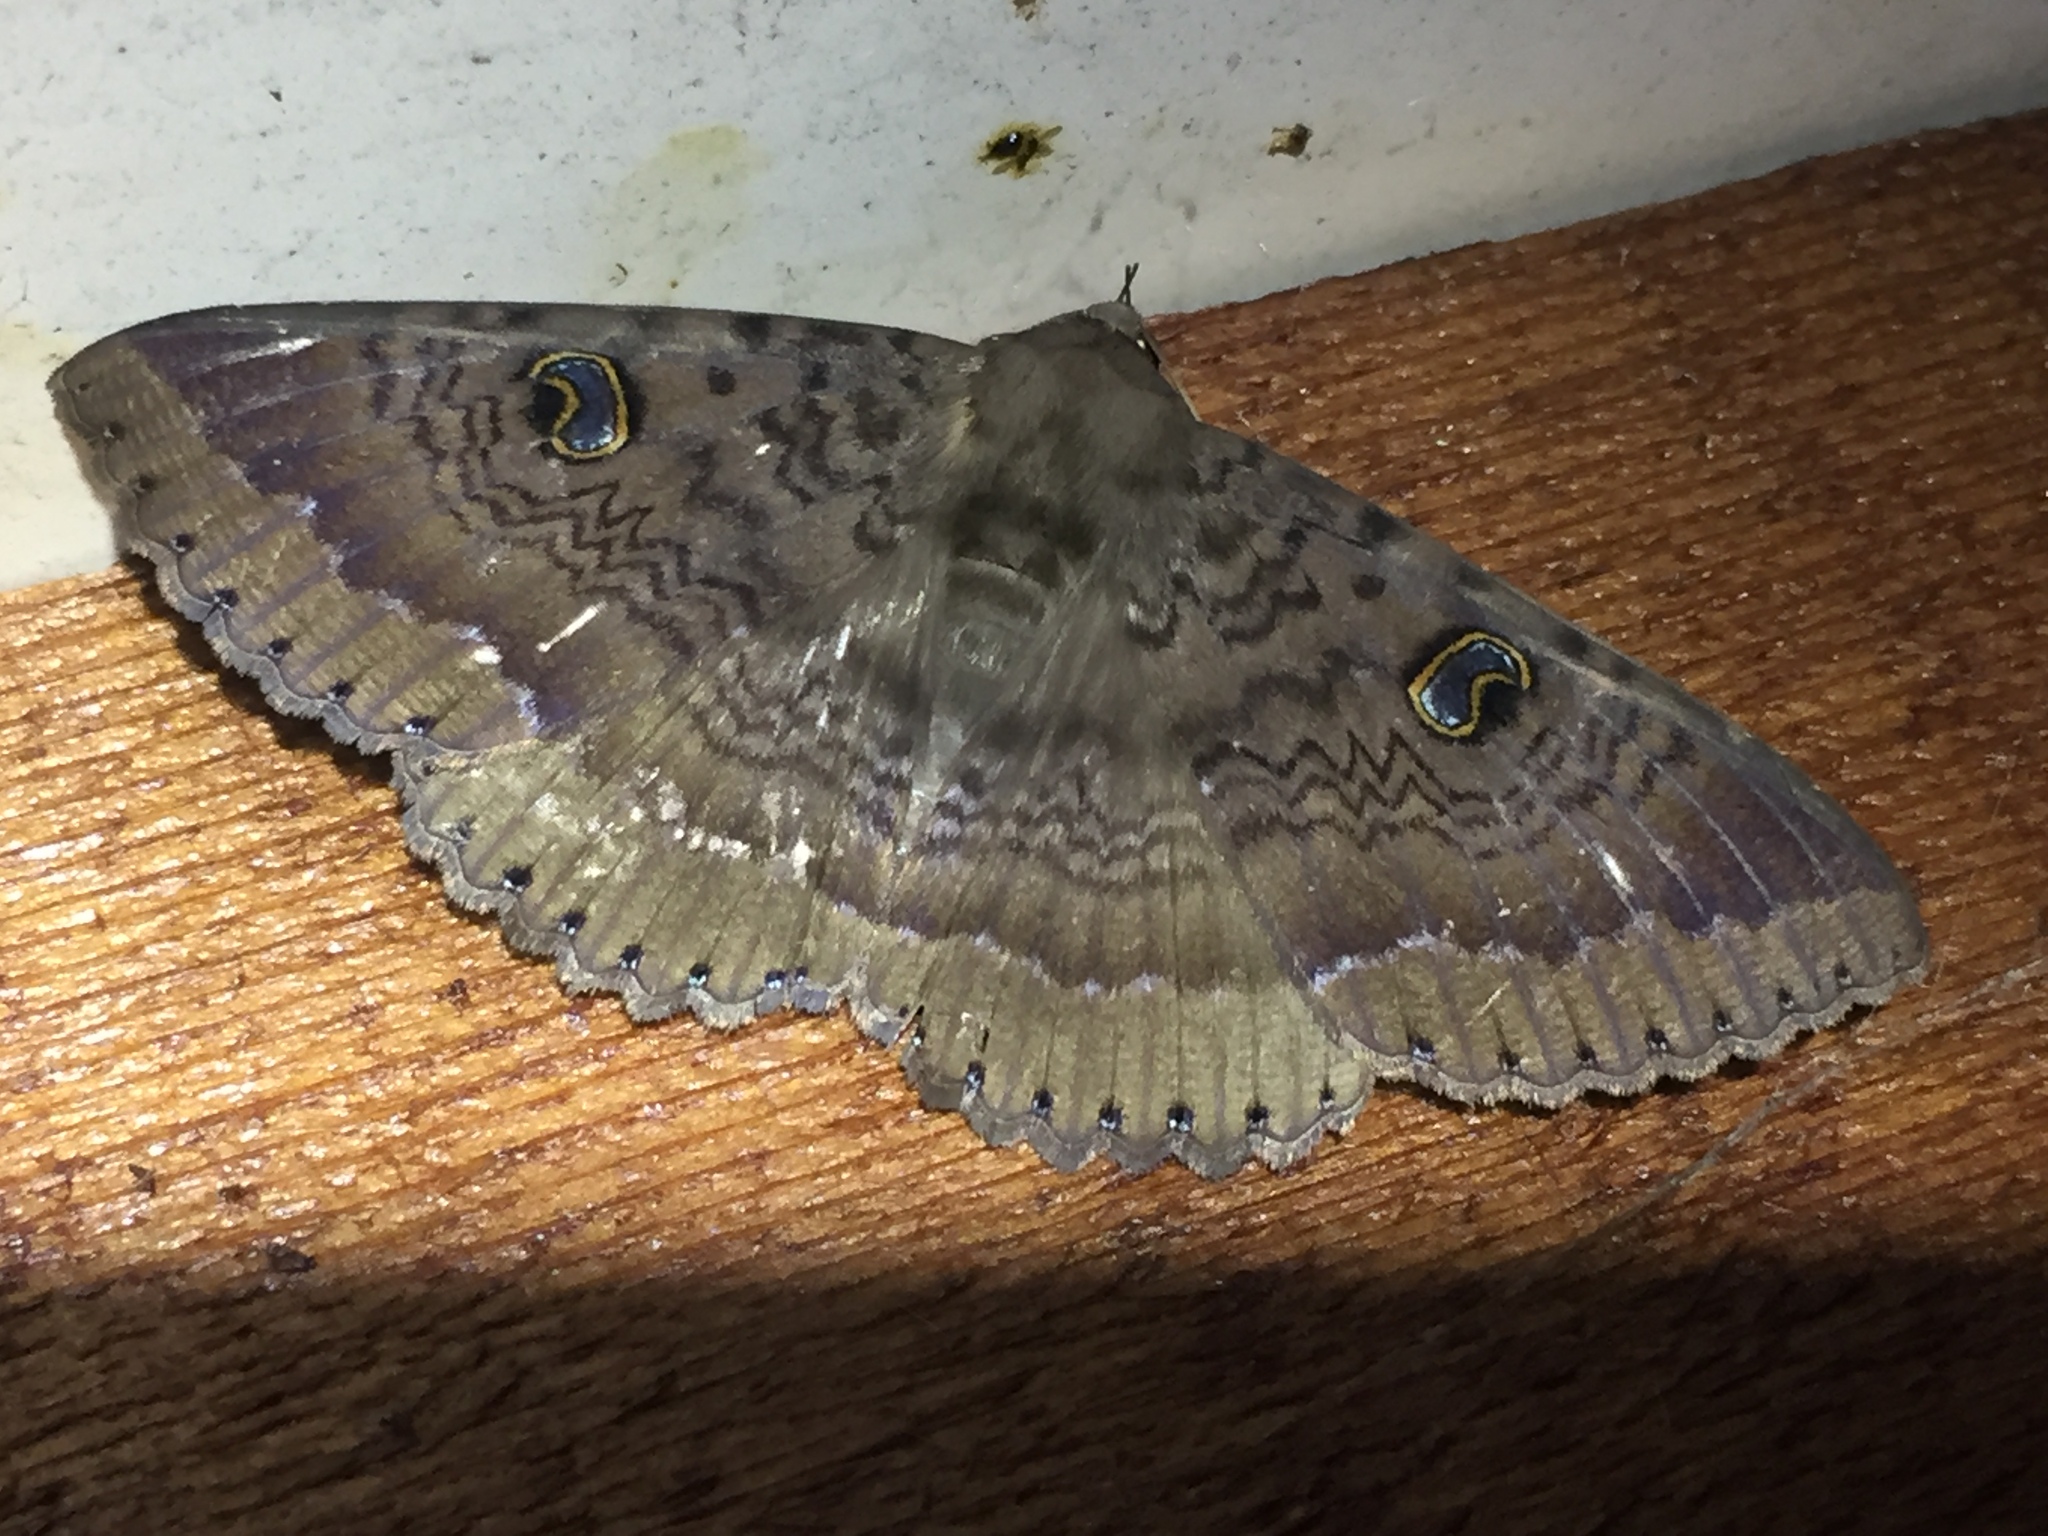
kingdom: Animalia
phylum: Arthropoda
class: Insecta
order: Lepidoptera
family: Erebidae
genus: Dasypodia
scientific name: Dasypodia cymatodes
